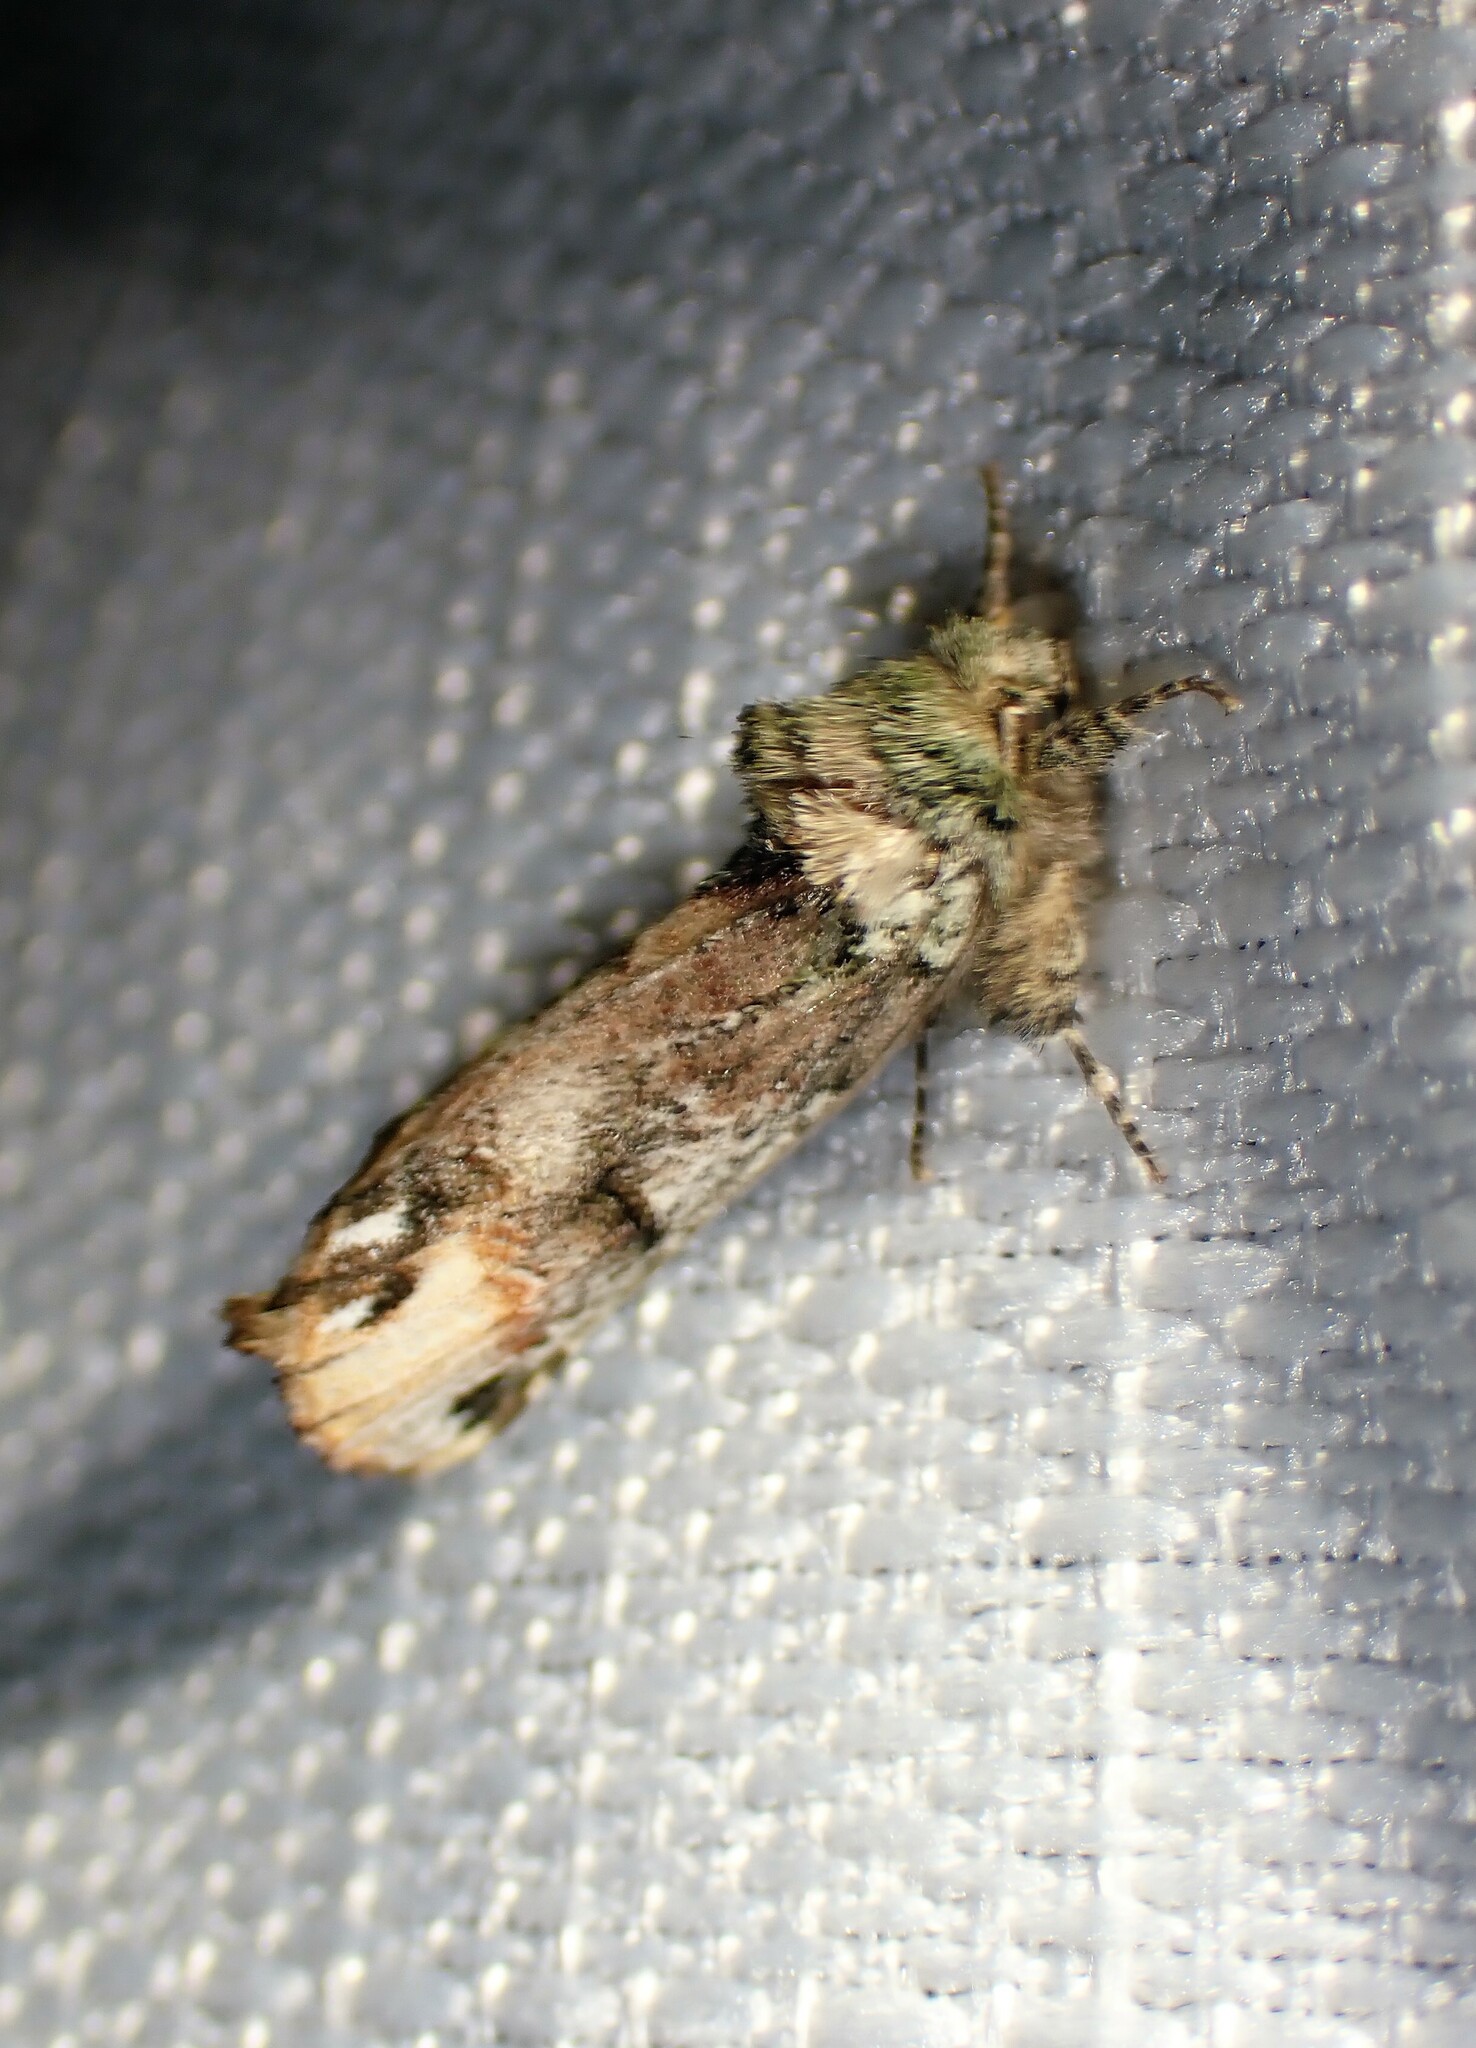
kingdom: Animalia
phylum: Arthropoda
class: Insecta
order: Lepidoptera
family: Notodontidae
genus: Schizura
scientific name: Schizura
